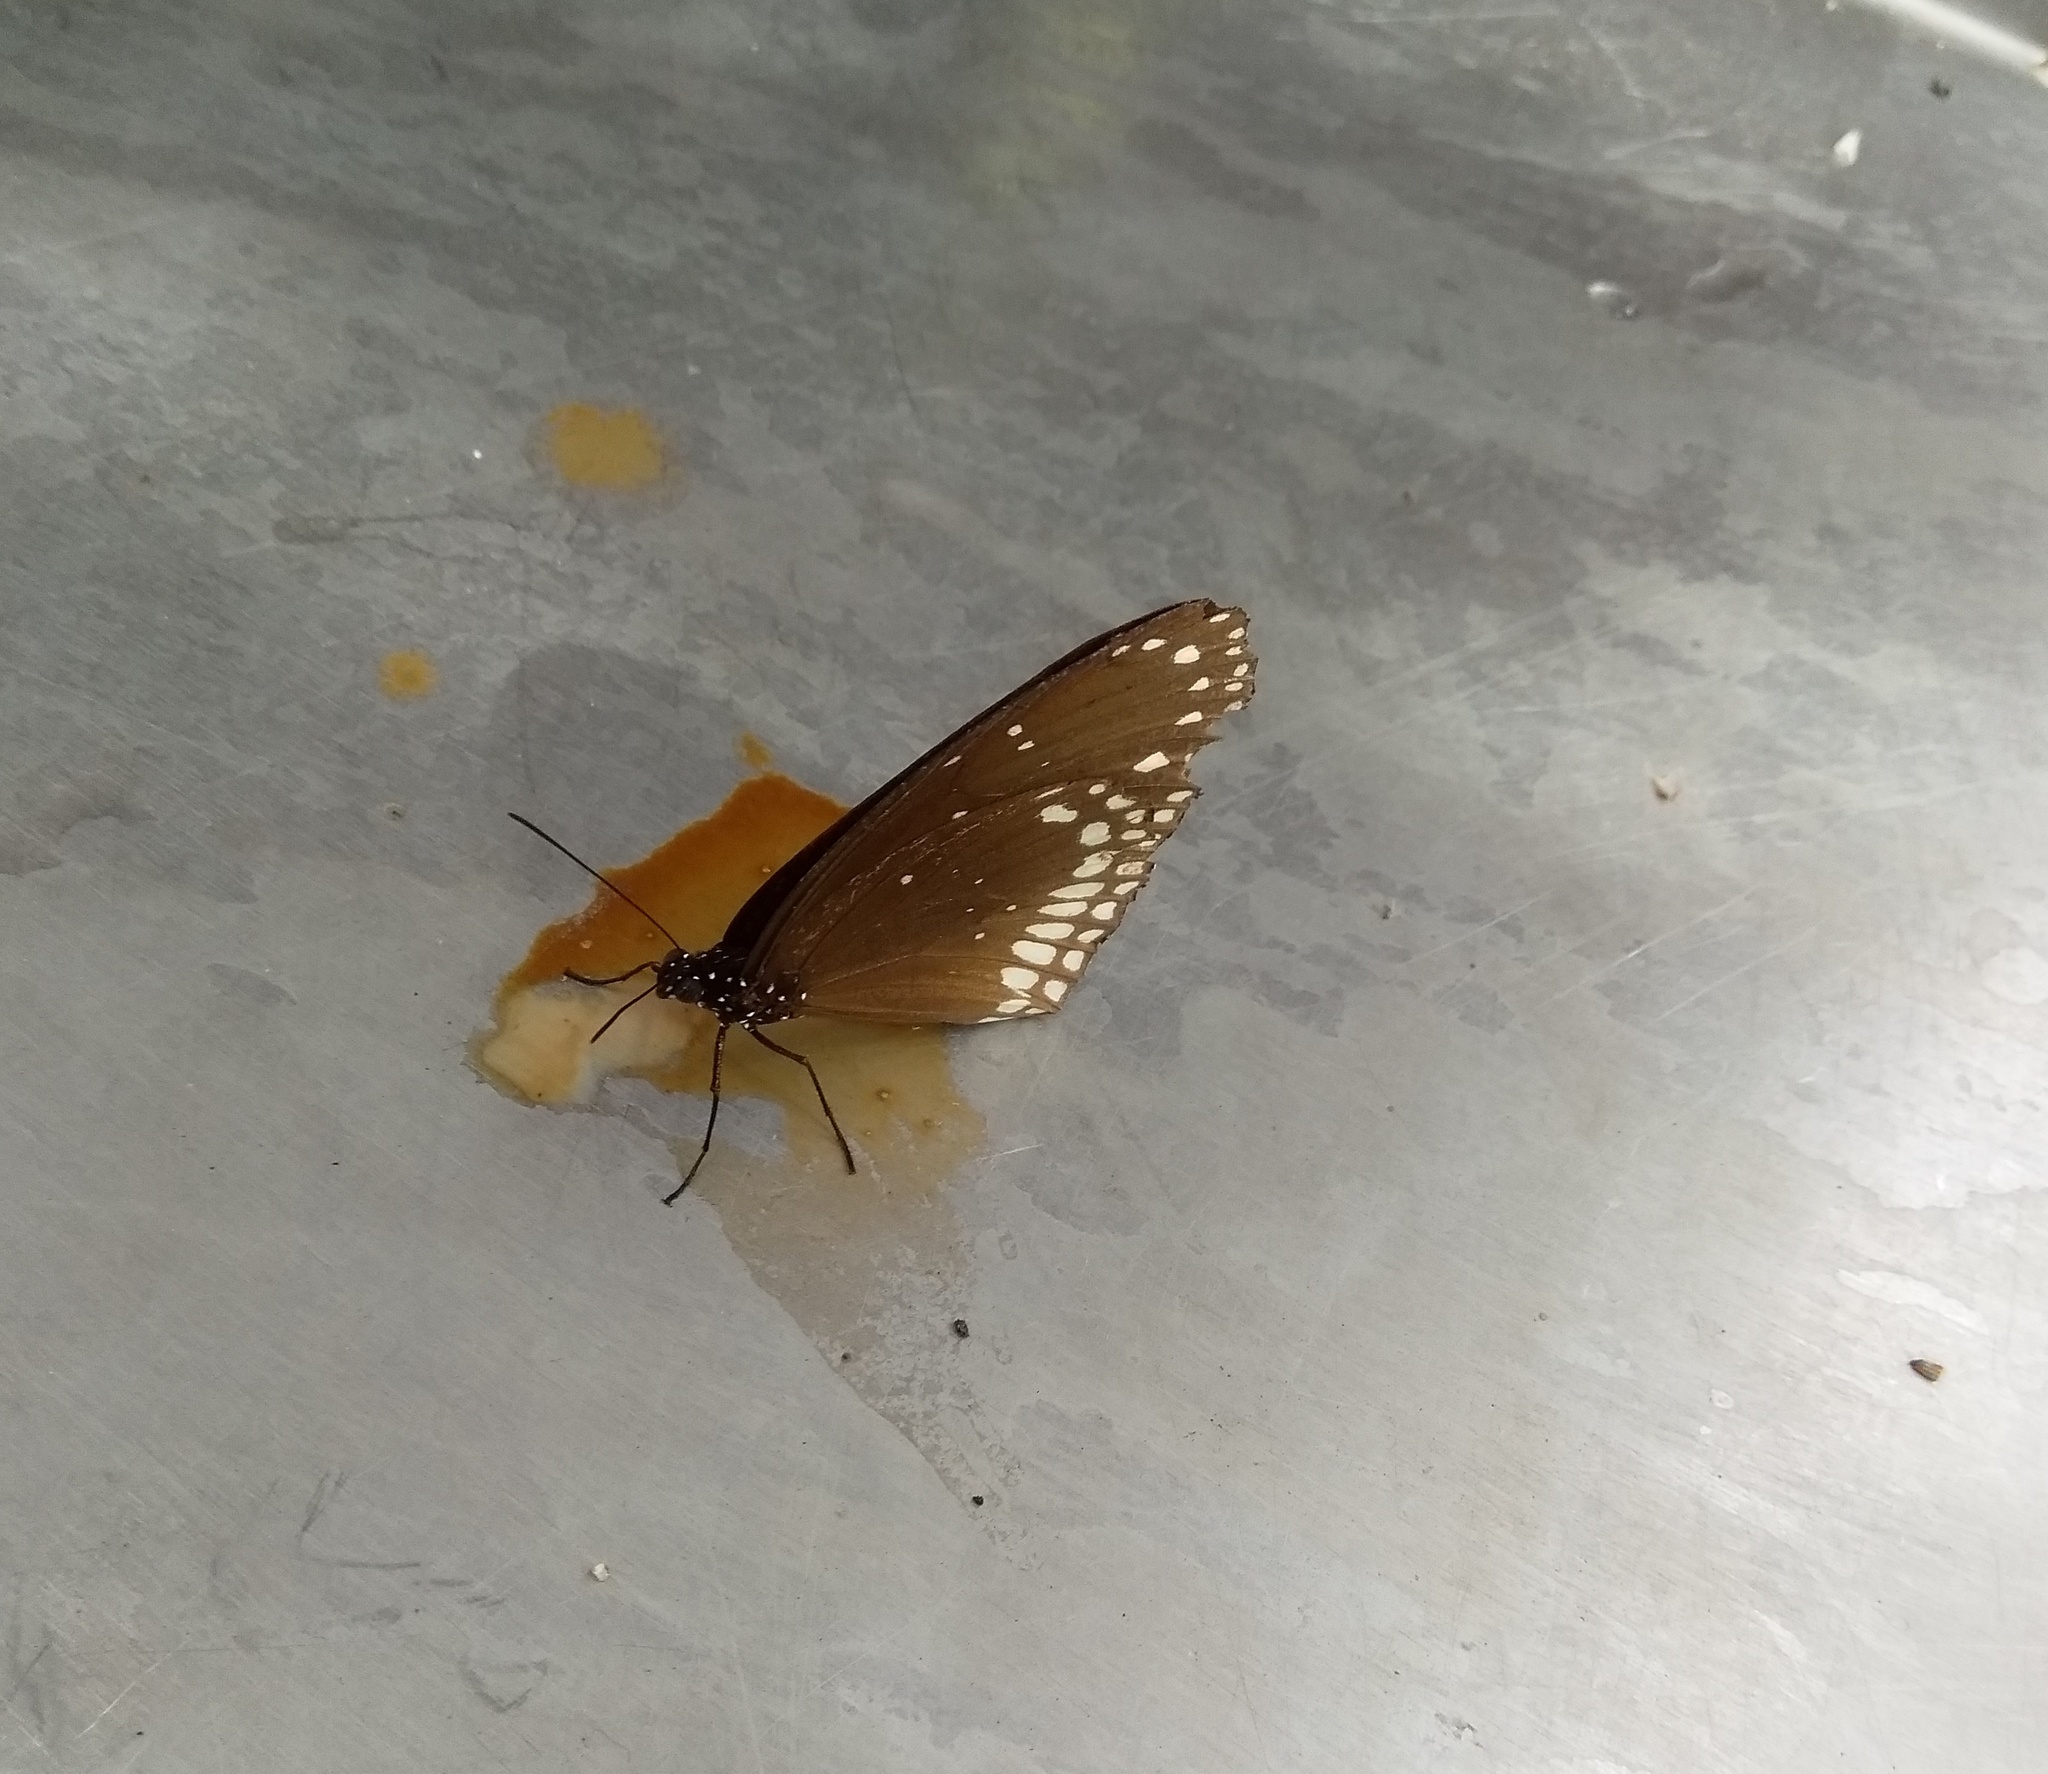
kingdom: Animalia
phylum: Arthropoda
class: Insecta
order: Lepidoptera
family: Nymphalidae
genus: Euploea
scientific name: Euploea core
